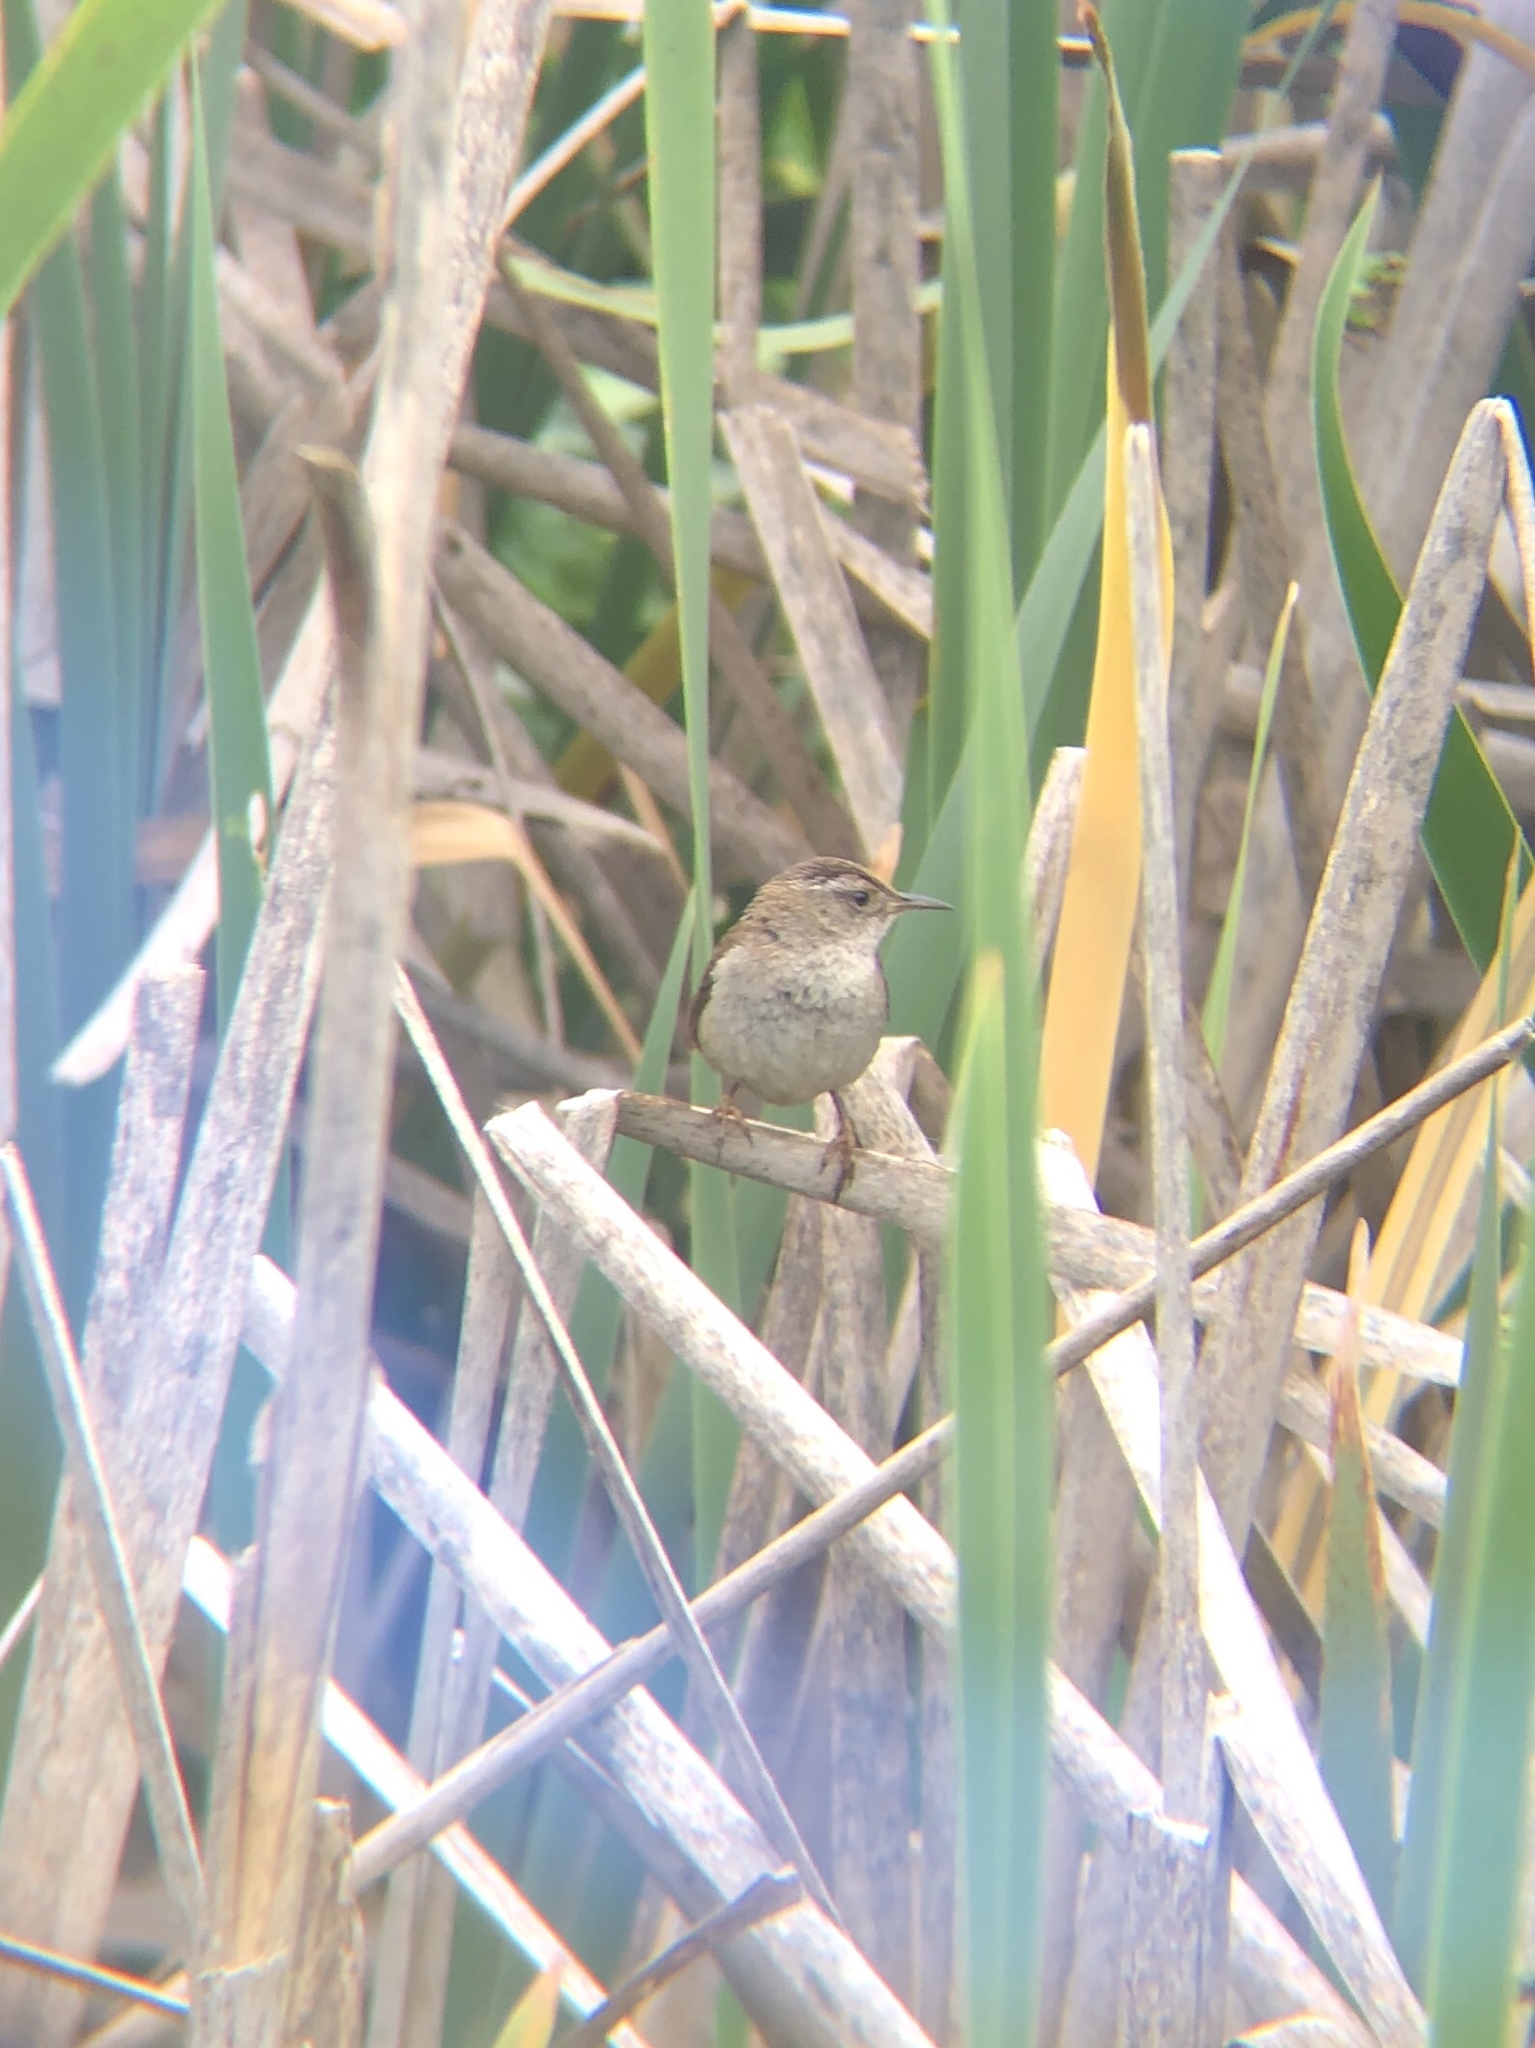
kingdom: Animalia
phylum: Chordata
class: Aves
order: Passeriformes
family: Troglodytidae
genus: Cistothorus
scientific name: Cistothorus palustris
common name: Marsh wren
